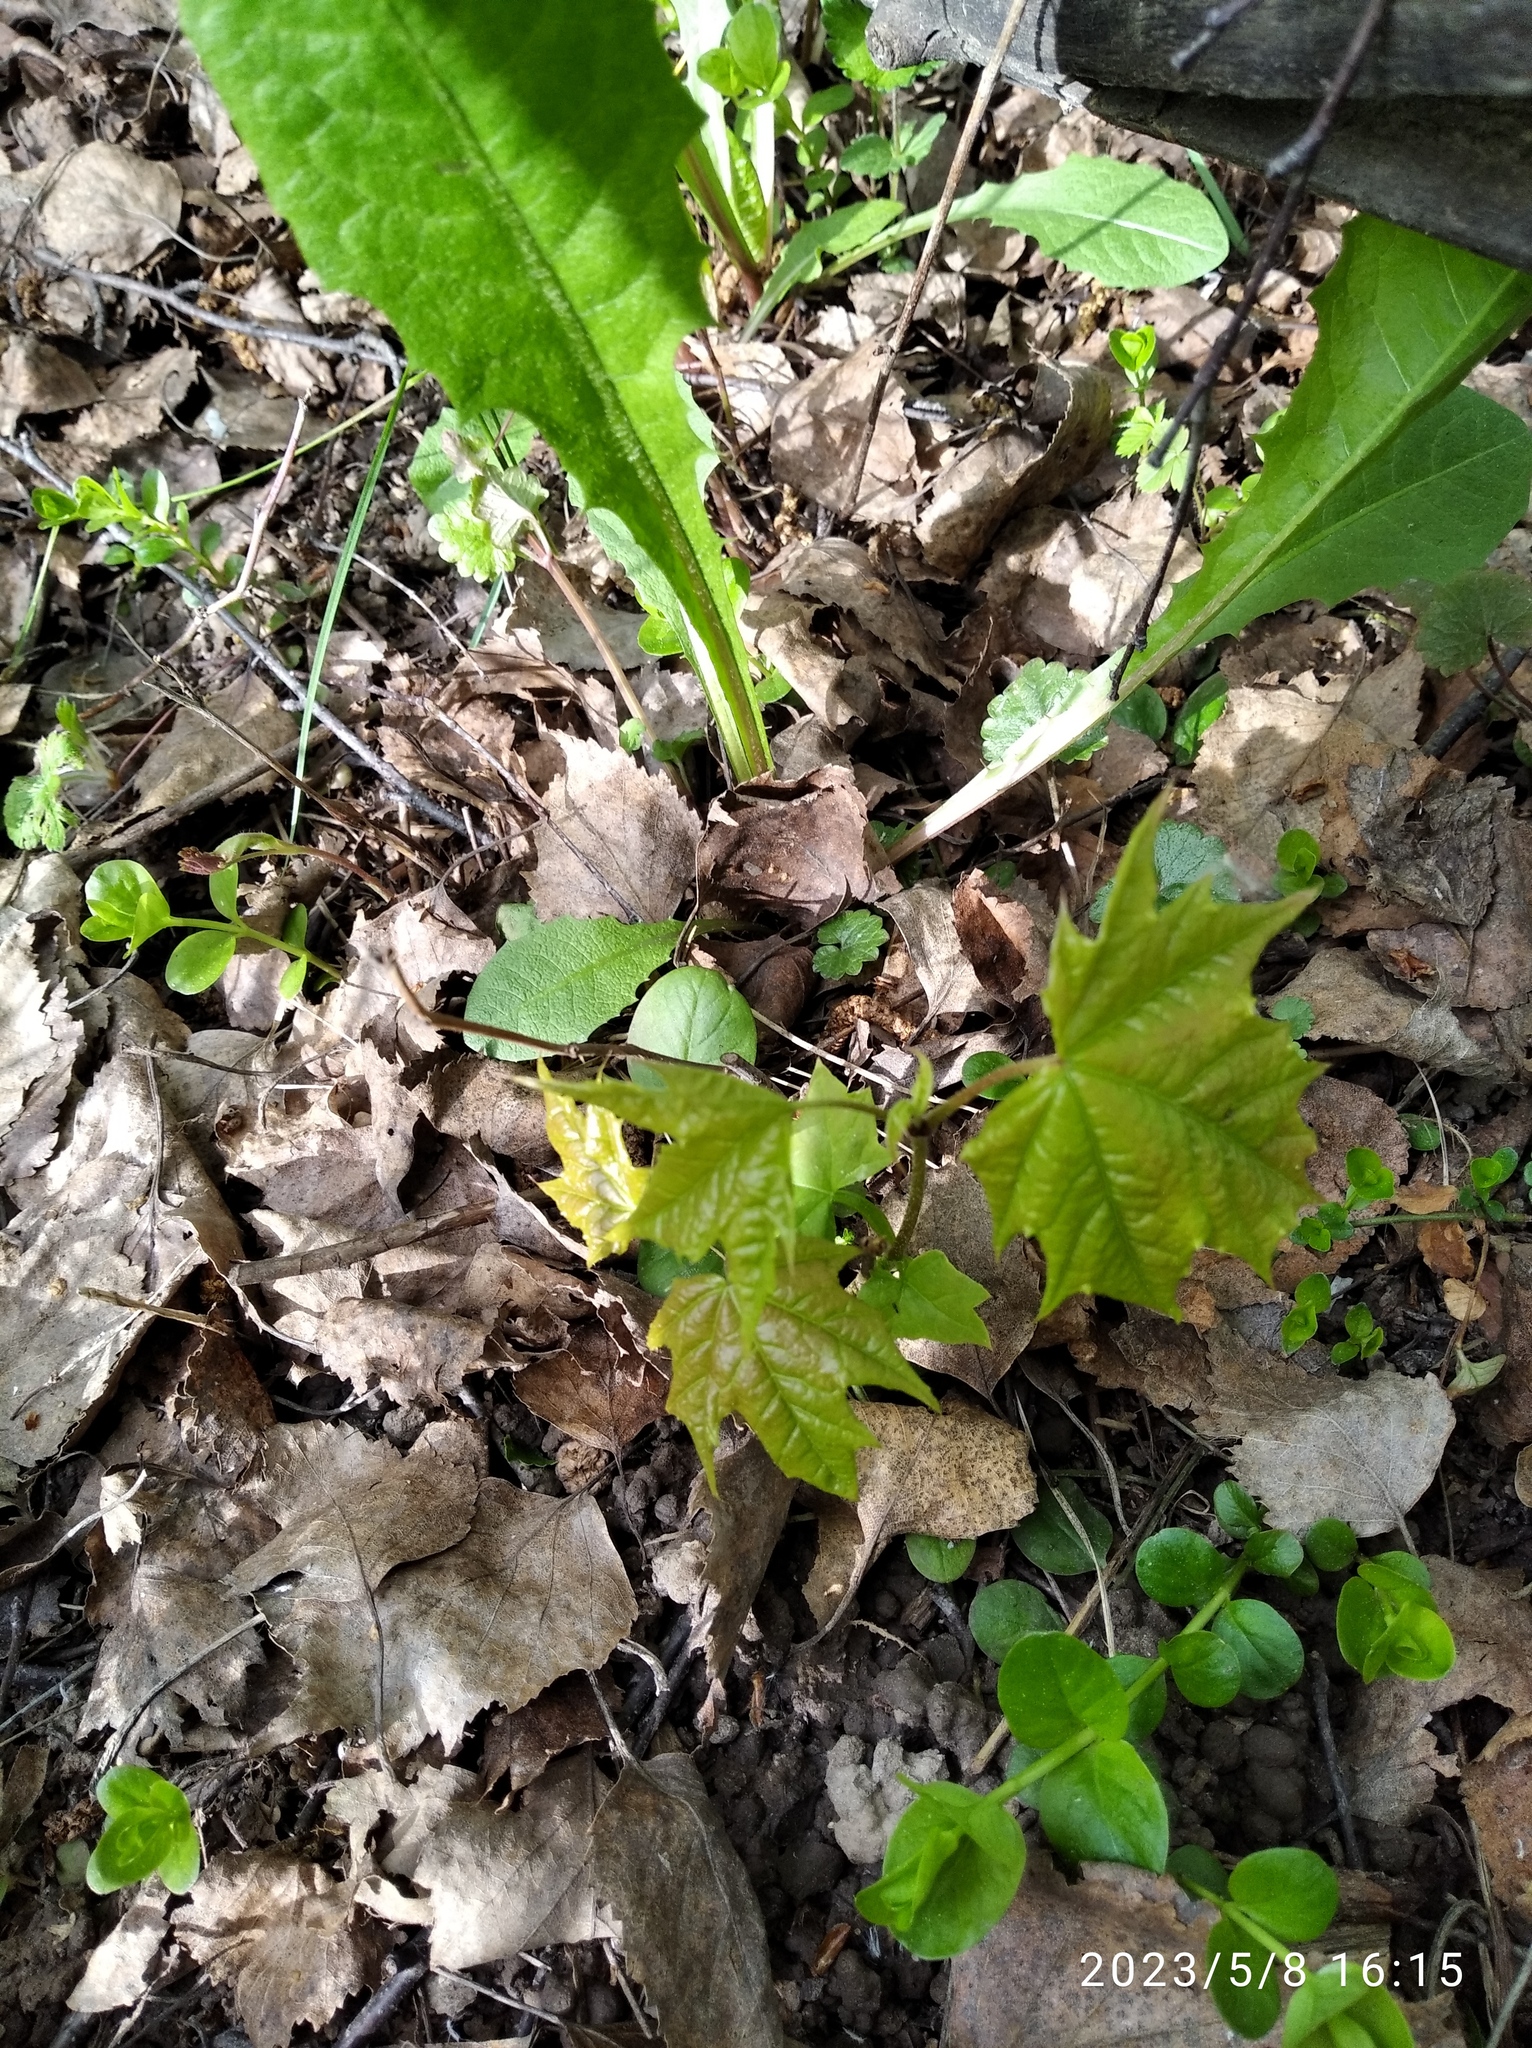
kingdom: Plantae
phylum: Tracheophyta
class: Magnoliopsida
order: Sapindales
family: Sapindaceae
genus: Acer
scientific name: Acer platanoides
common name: Norway maple
